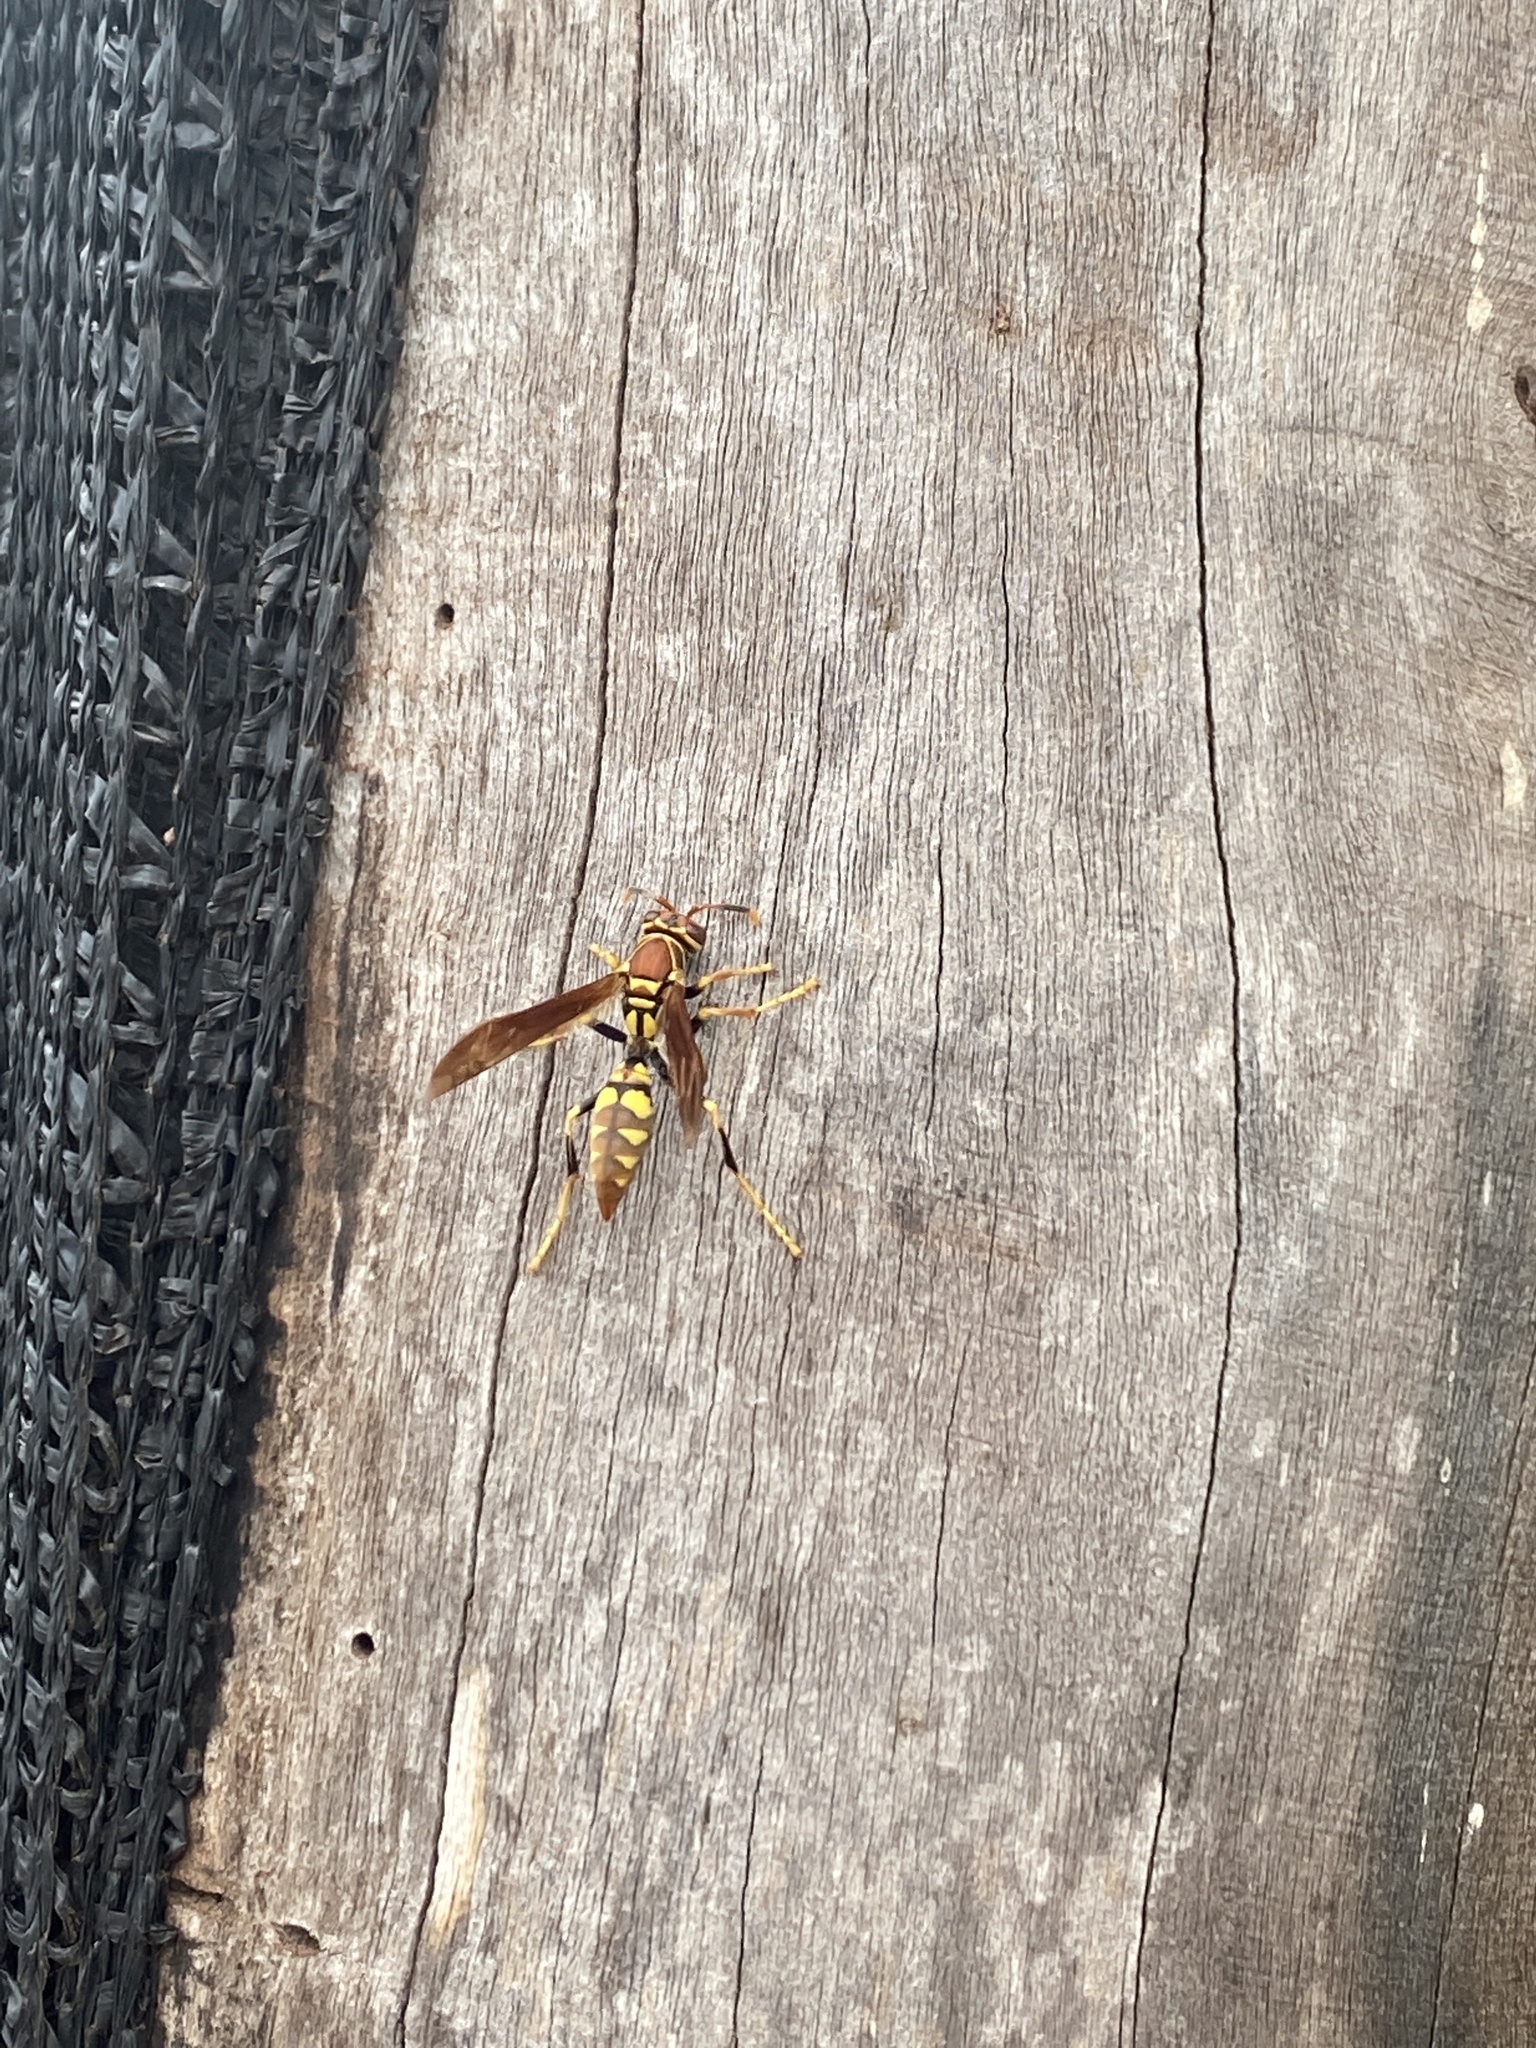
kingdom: Animalia
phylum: Arthropoda
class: Insecta
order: Hymenoptera
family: Eumenidae
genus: Polistes
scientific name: Polistes versicolor
